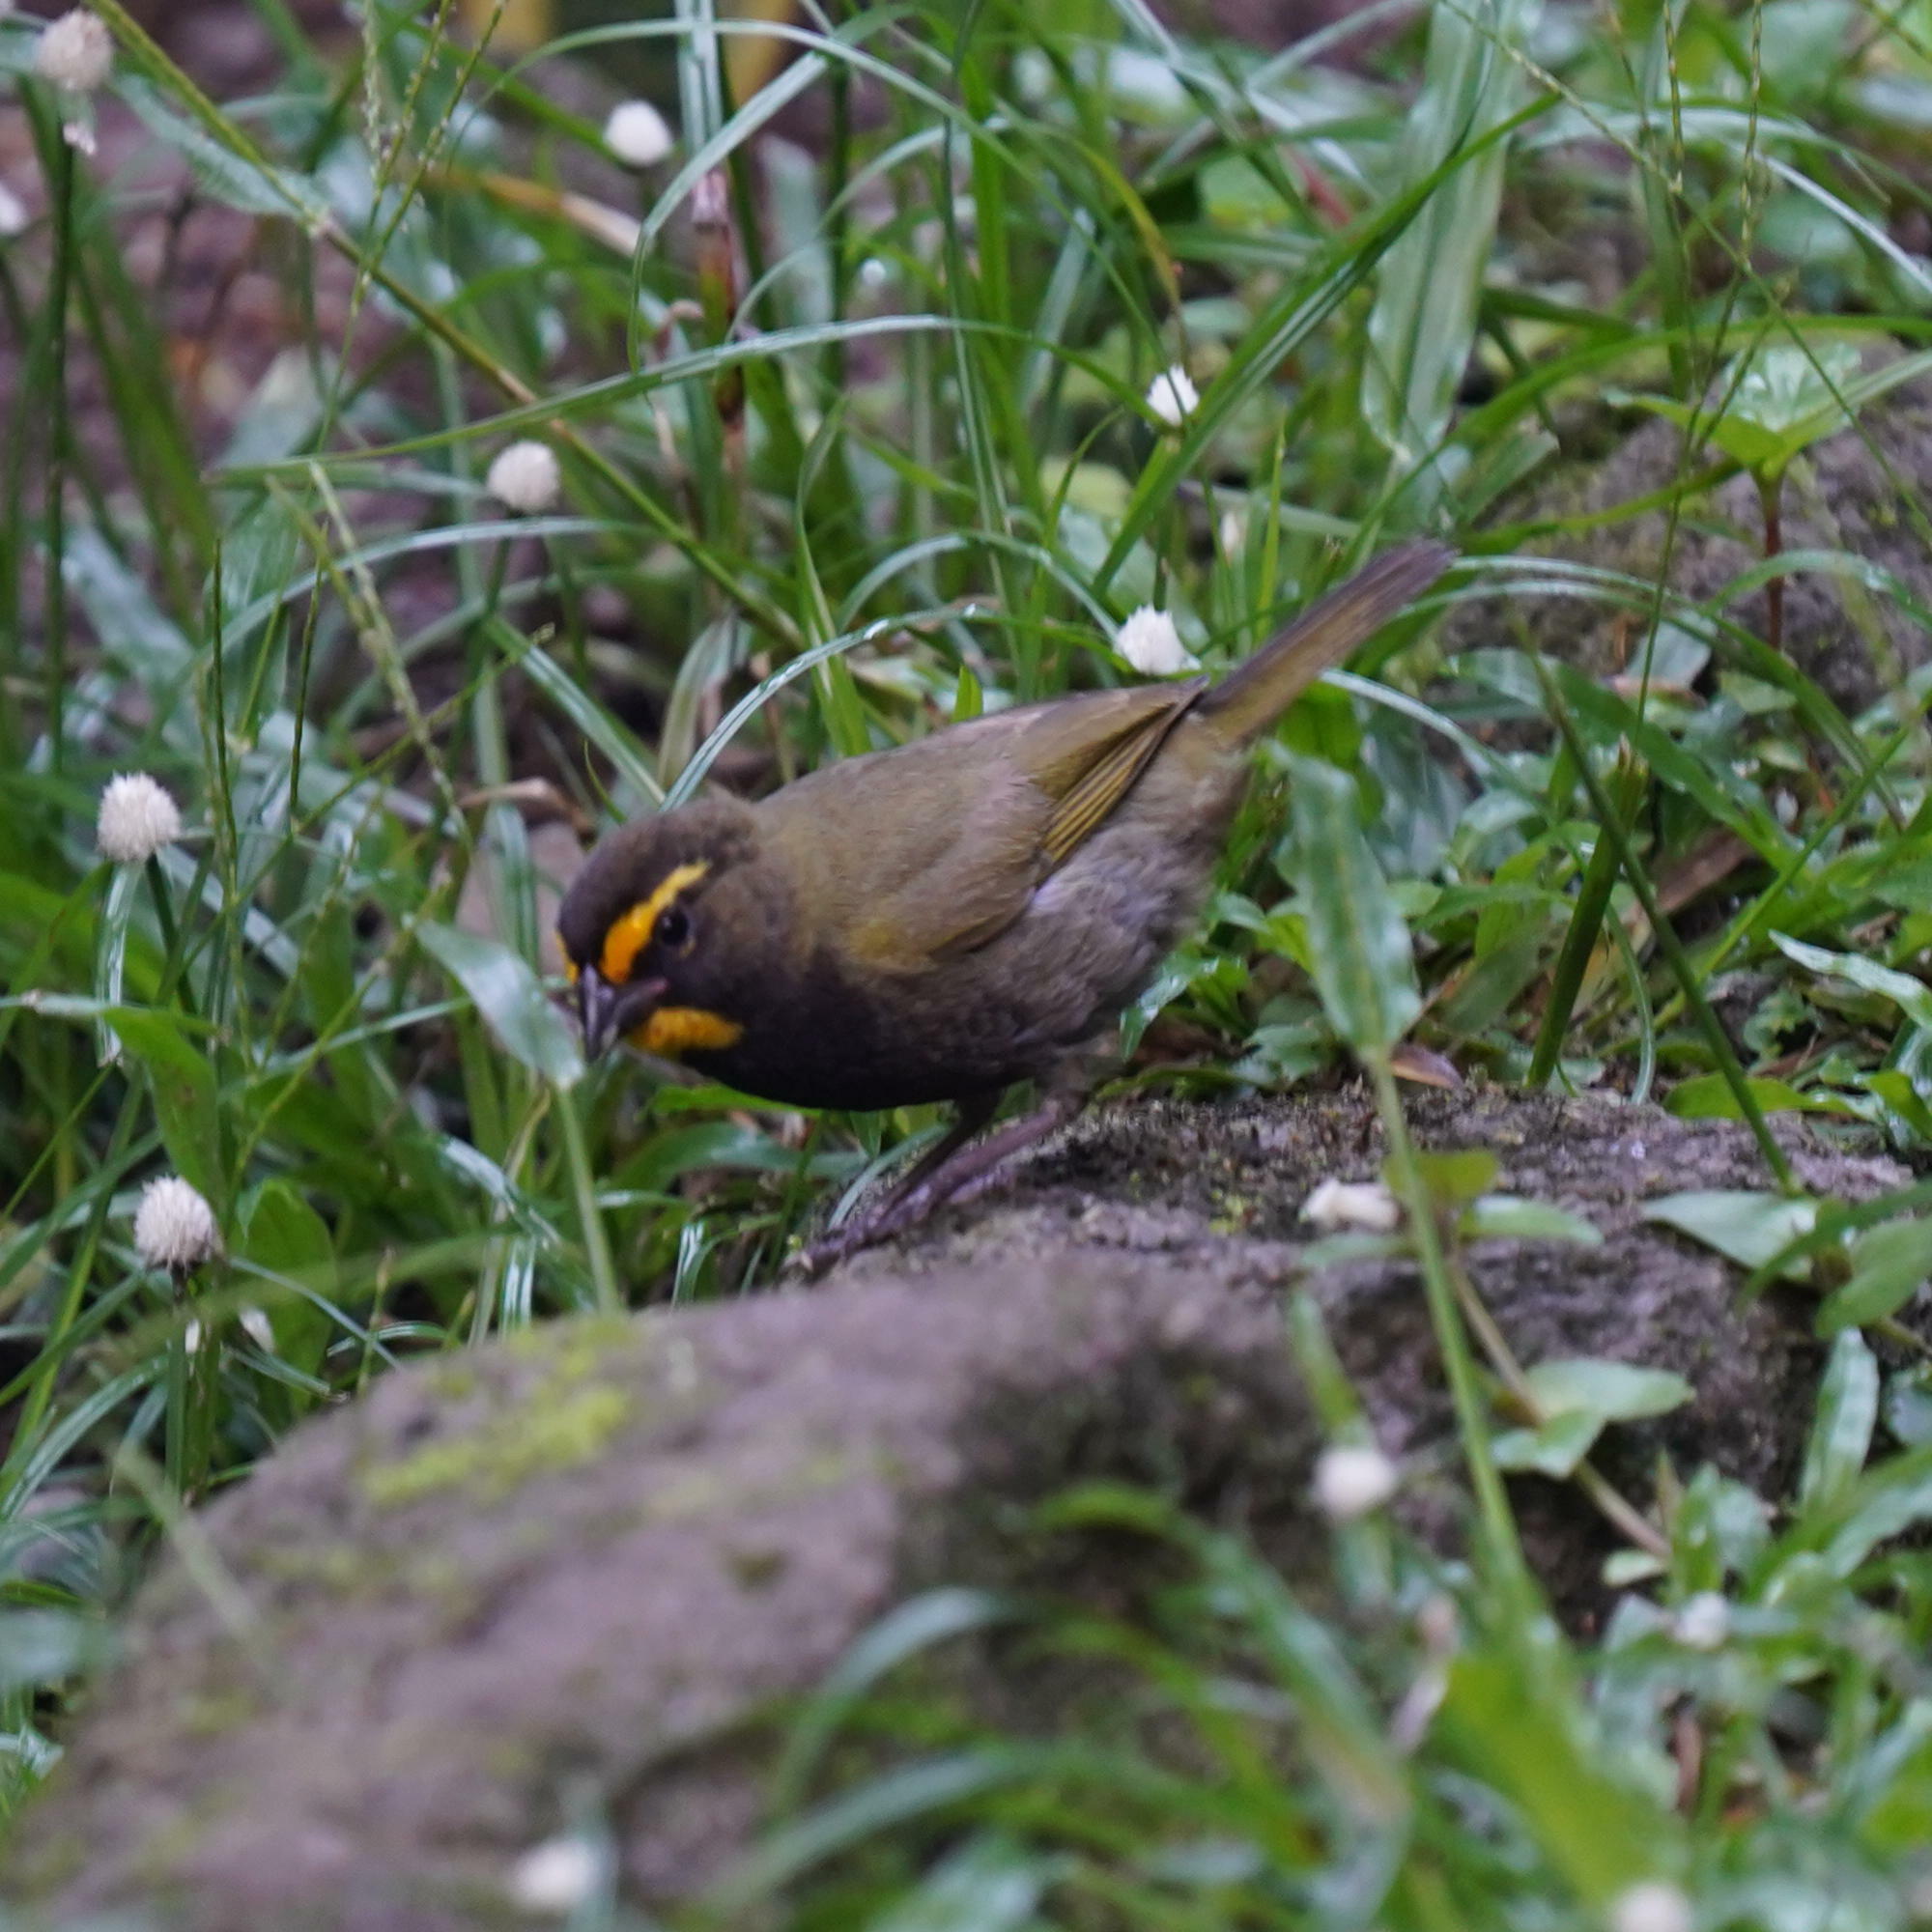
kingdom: Animalia
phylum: Chordata
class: Aves
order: Passeriformes
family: Thraupidae
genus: Tiaris
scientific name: Tiaris olivaceus
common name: Yellow-faced grassquit
